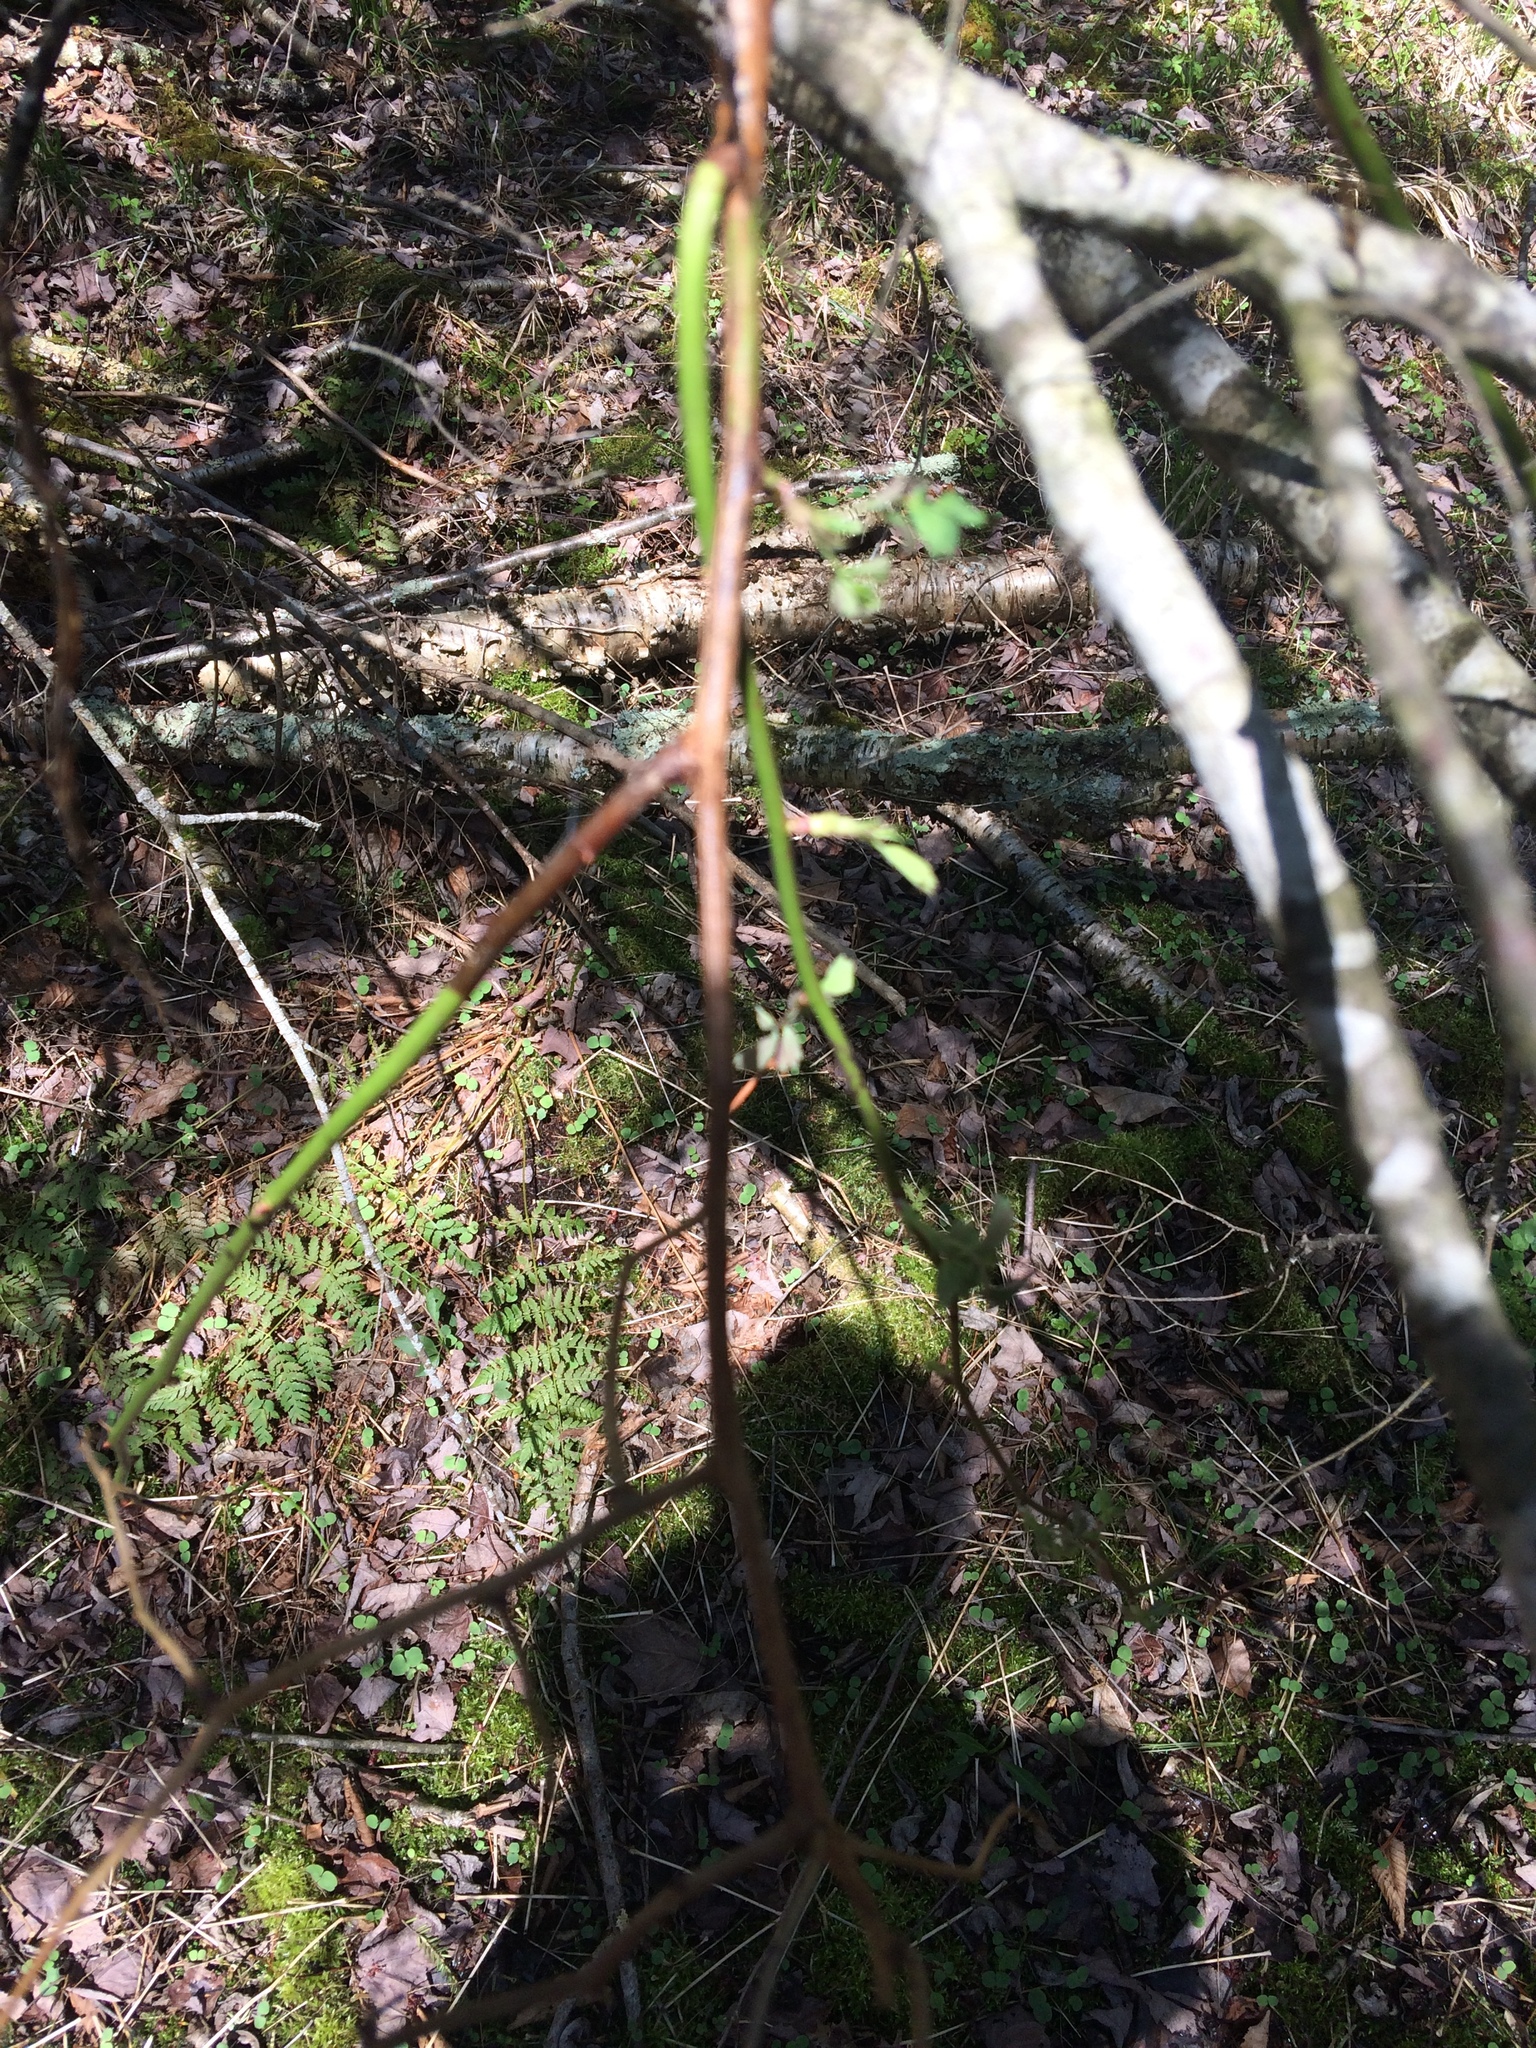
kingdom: Plantae
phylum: Tracheophyta
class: Magnoliopsida
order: Rosales
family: Rosaceae
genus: Rosa
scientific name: Rosa multiflora
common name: Multiflora rose
